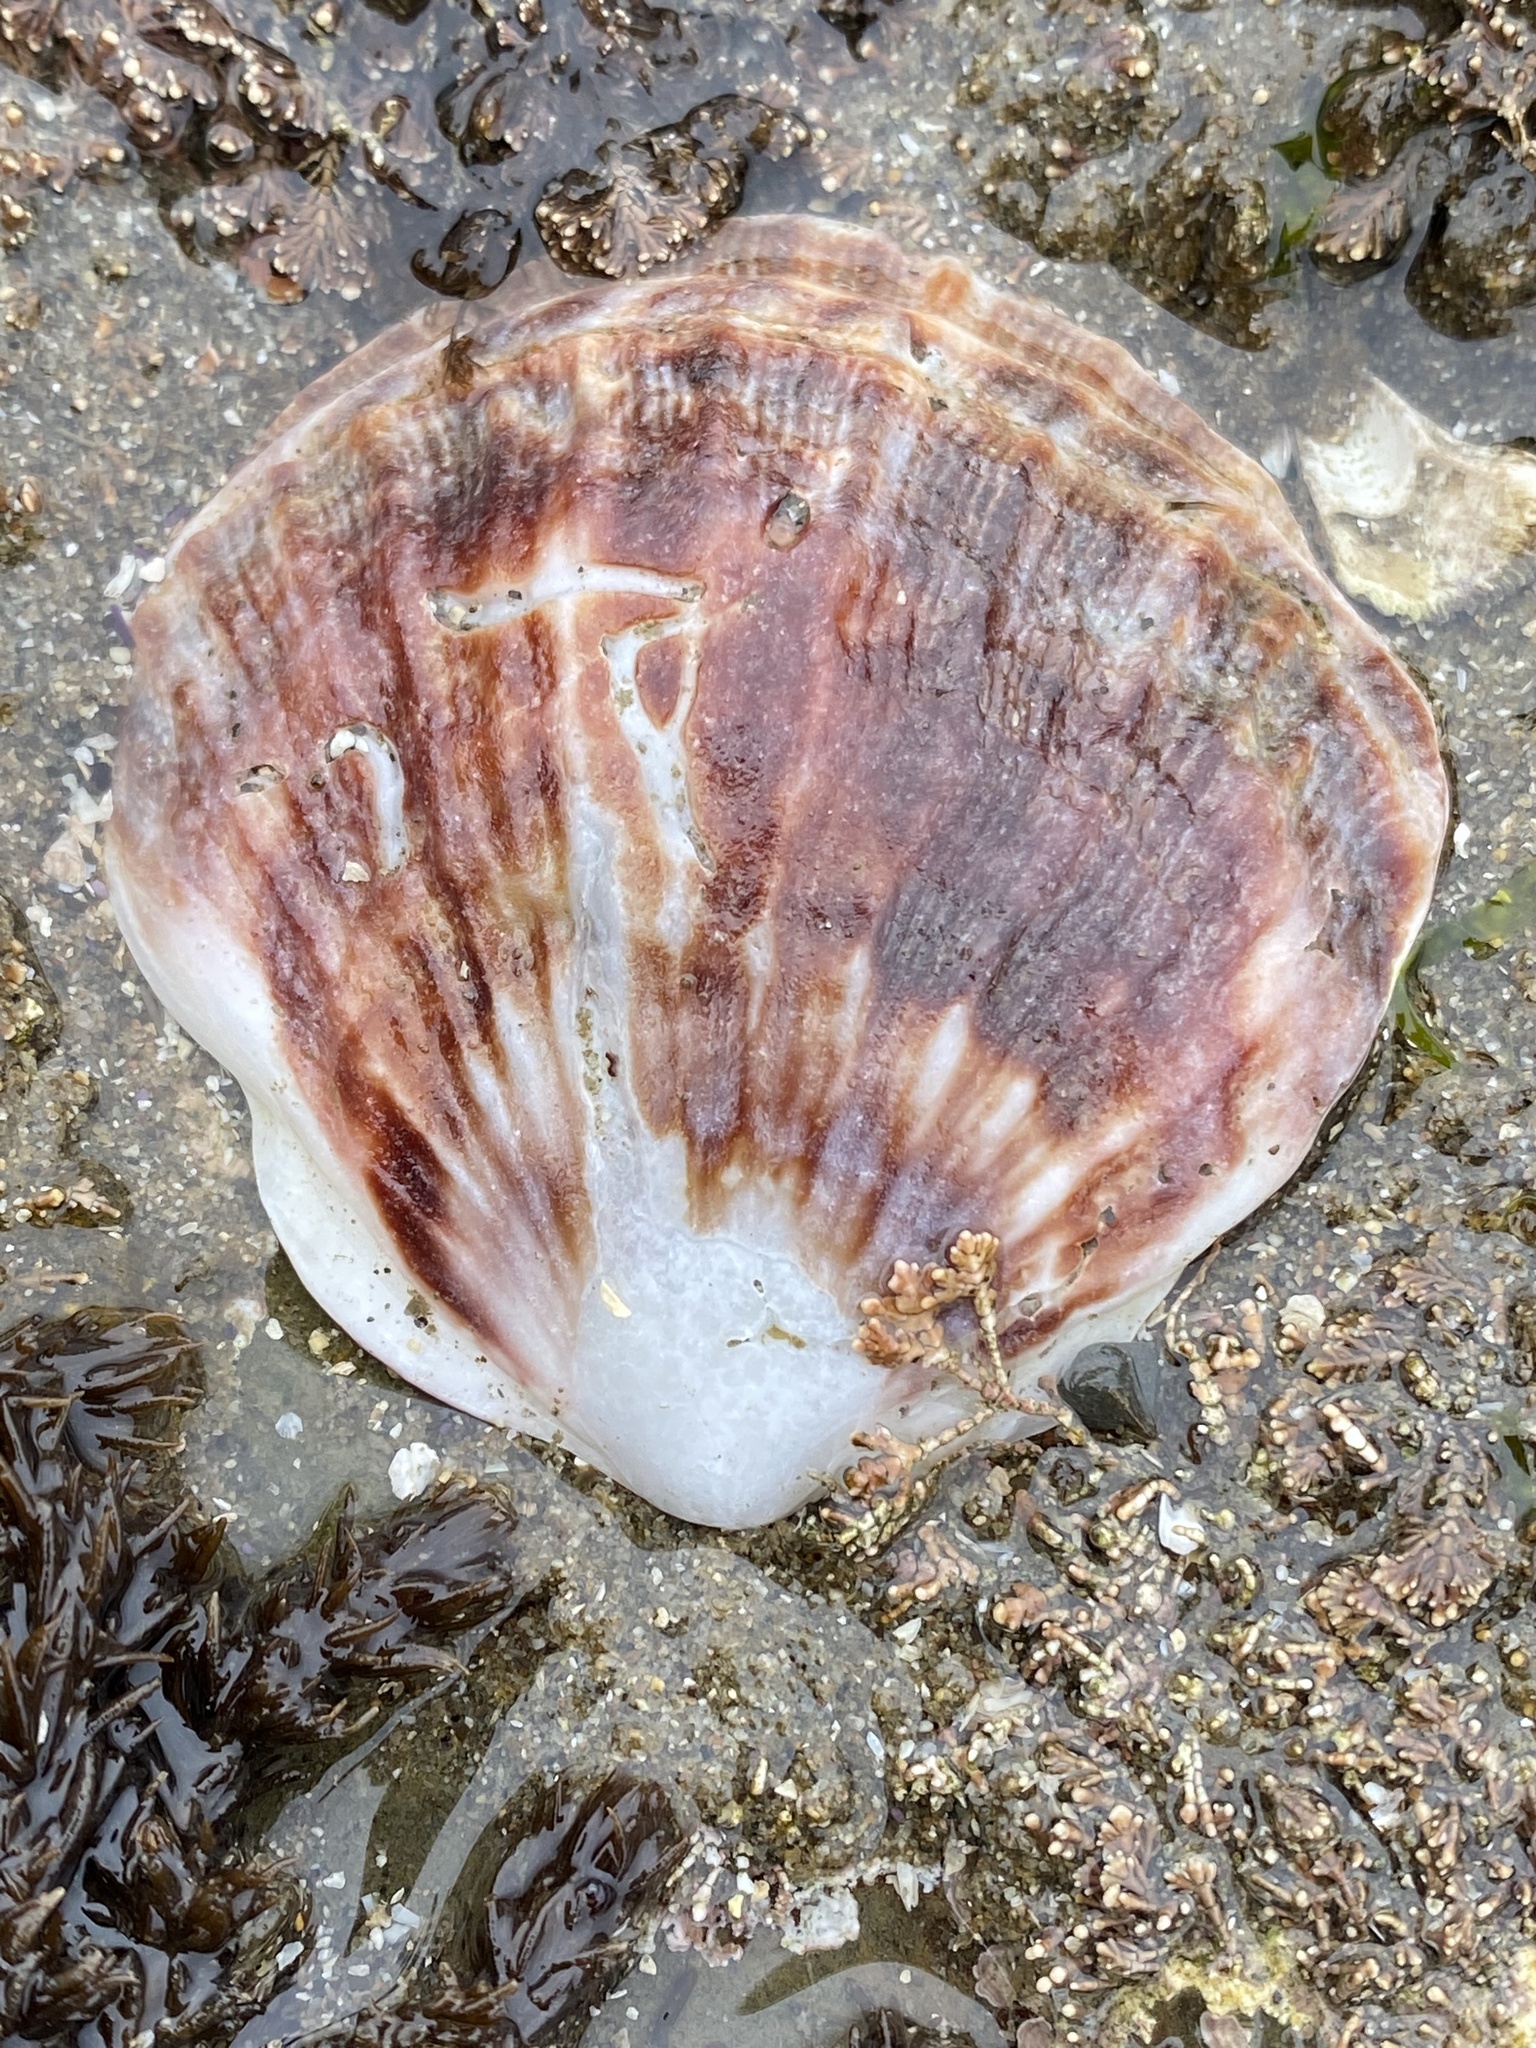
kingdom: Animalia
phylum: Mollusca
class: Bivalvia
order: Pectinida
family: Pectinidae
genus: Crassadoma
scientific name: Crassadoma gigantea
